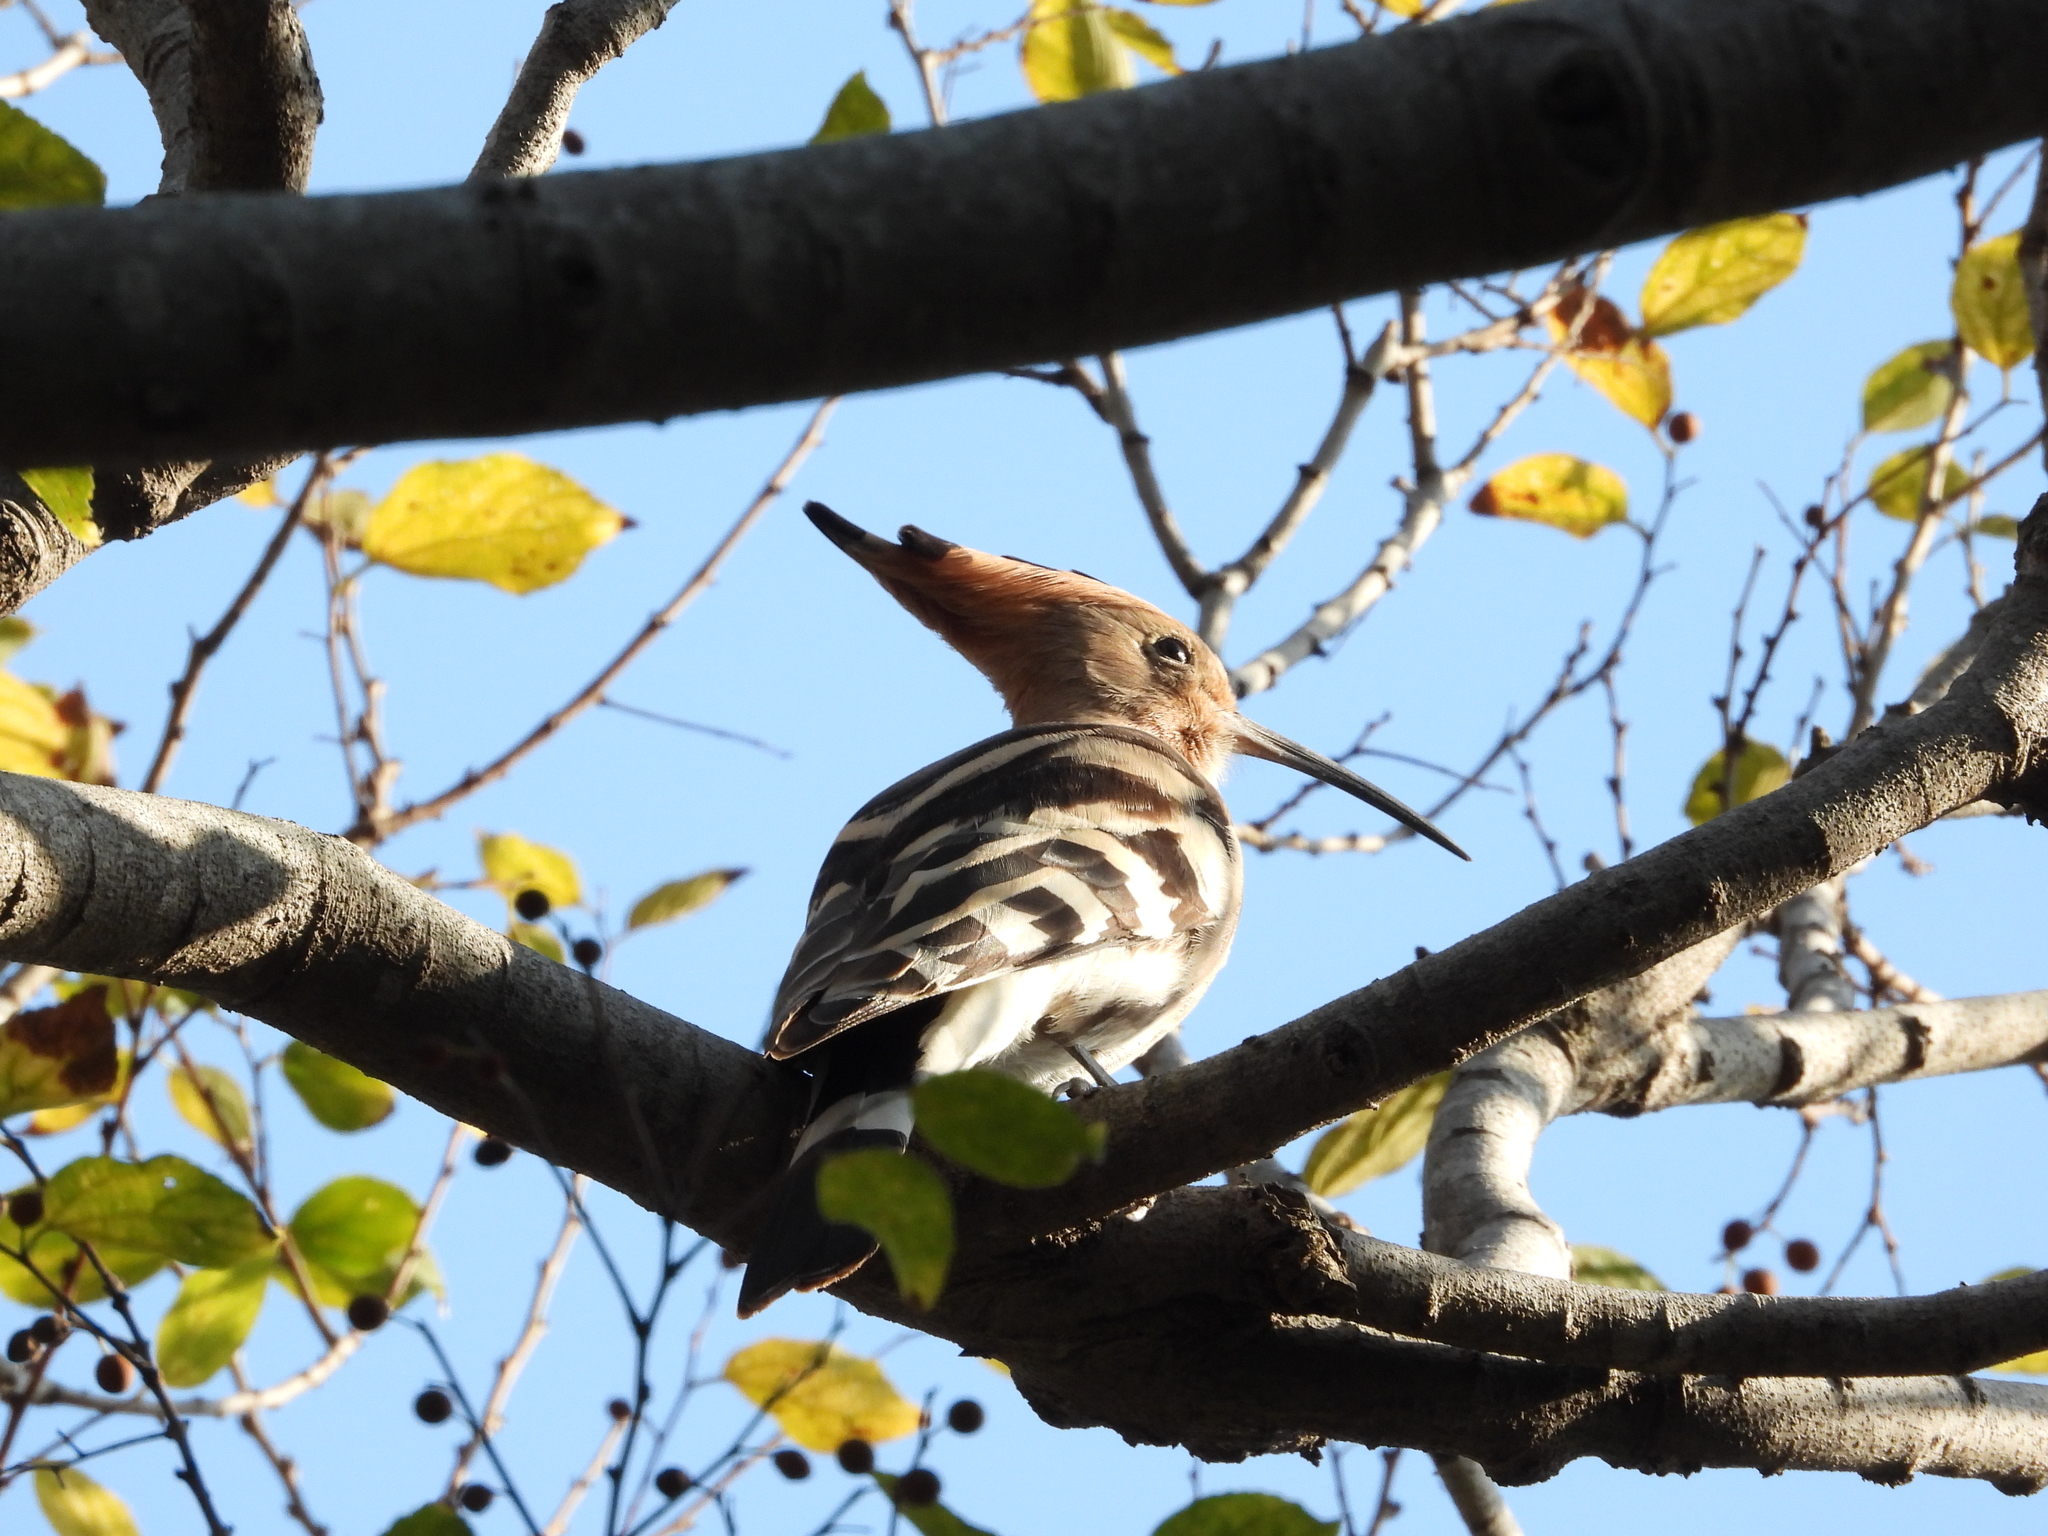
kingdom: Animalia
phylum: Chordata
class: Aves
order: Bucerotiformes
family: Upupidae
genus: Upupa
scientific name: Upupa epops
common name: Eurasian hoopoe
